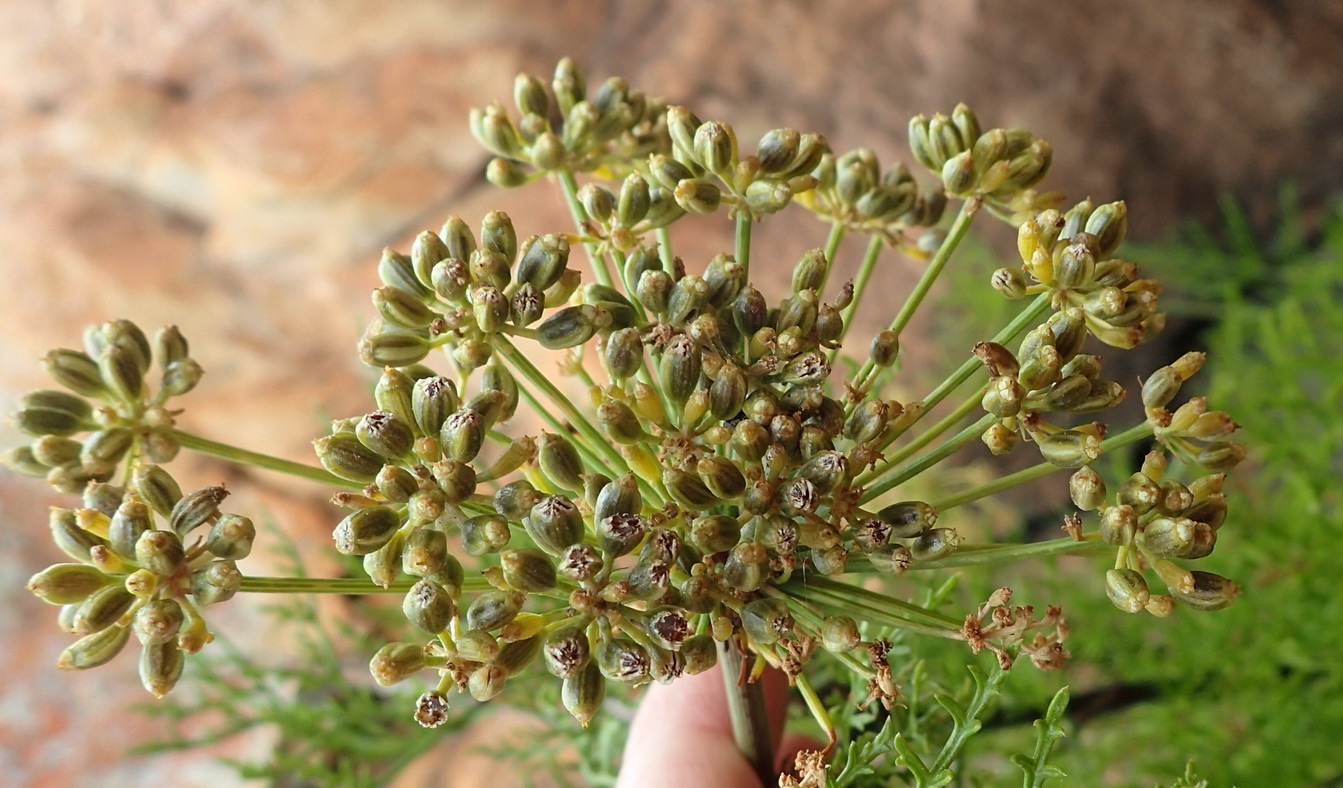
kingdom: Plantae
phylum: Tracheophyta
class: Magnoliopsida
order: Apiales
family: Apiaceae
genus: Notobubon
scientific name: Notobubon tenuifolium
